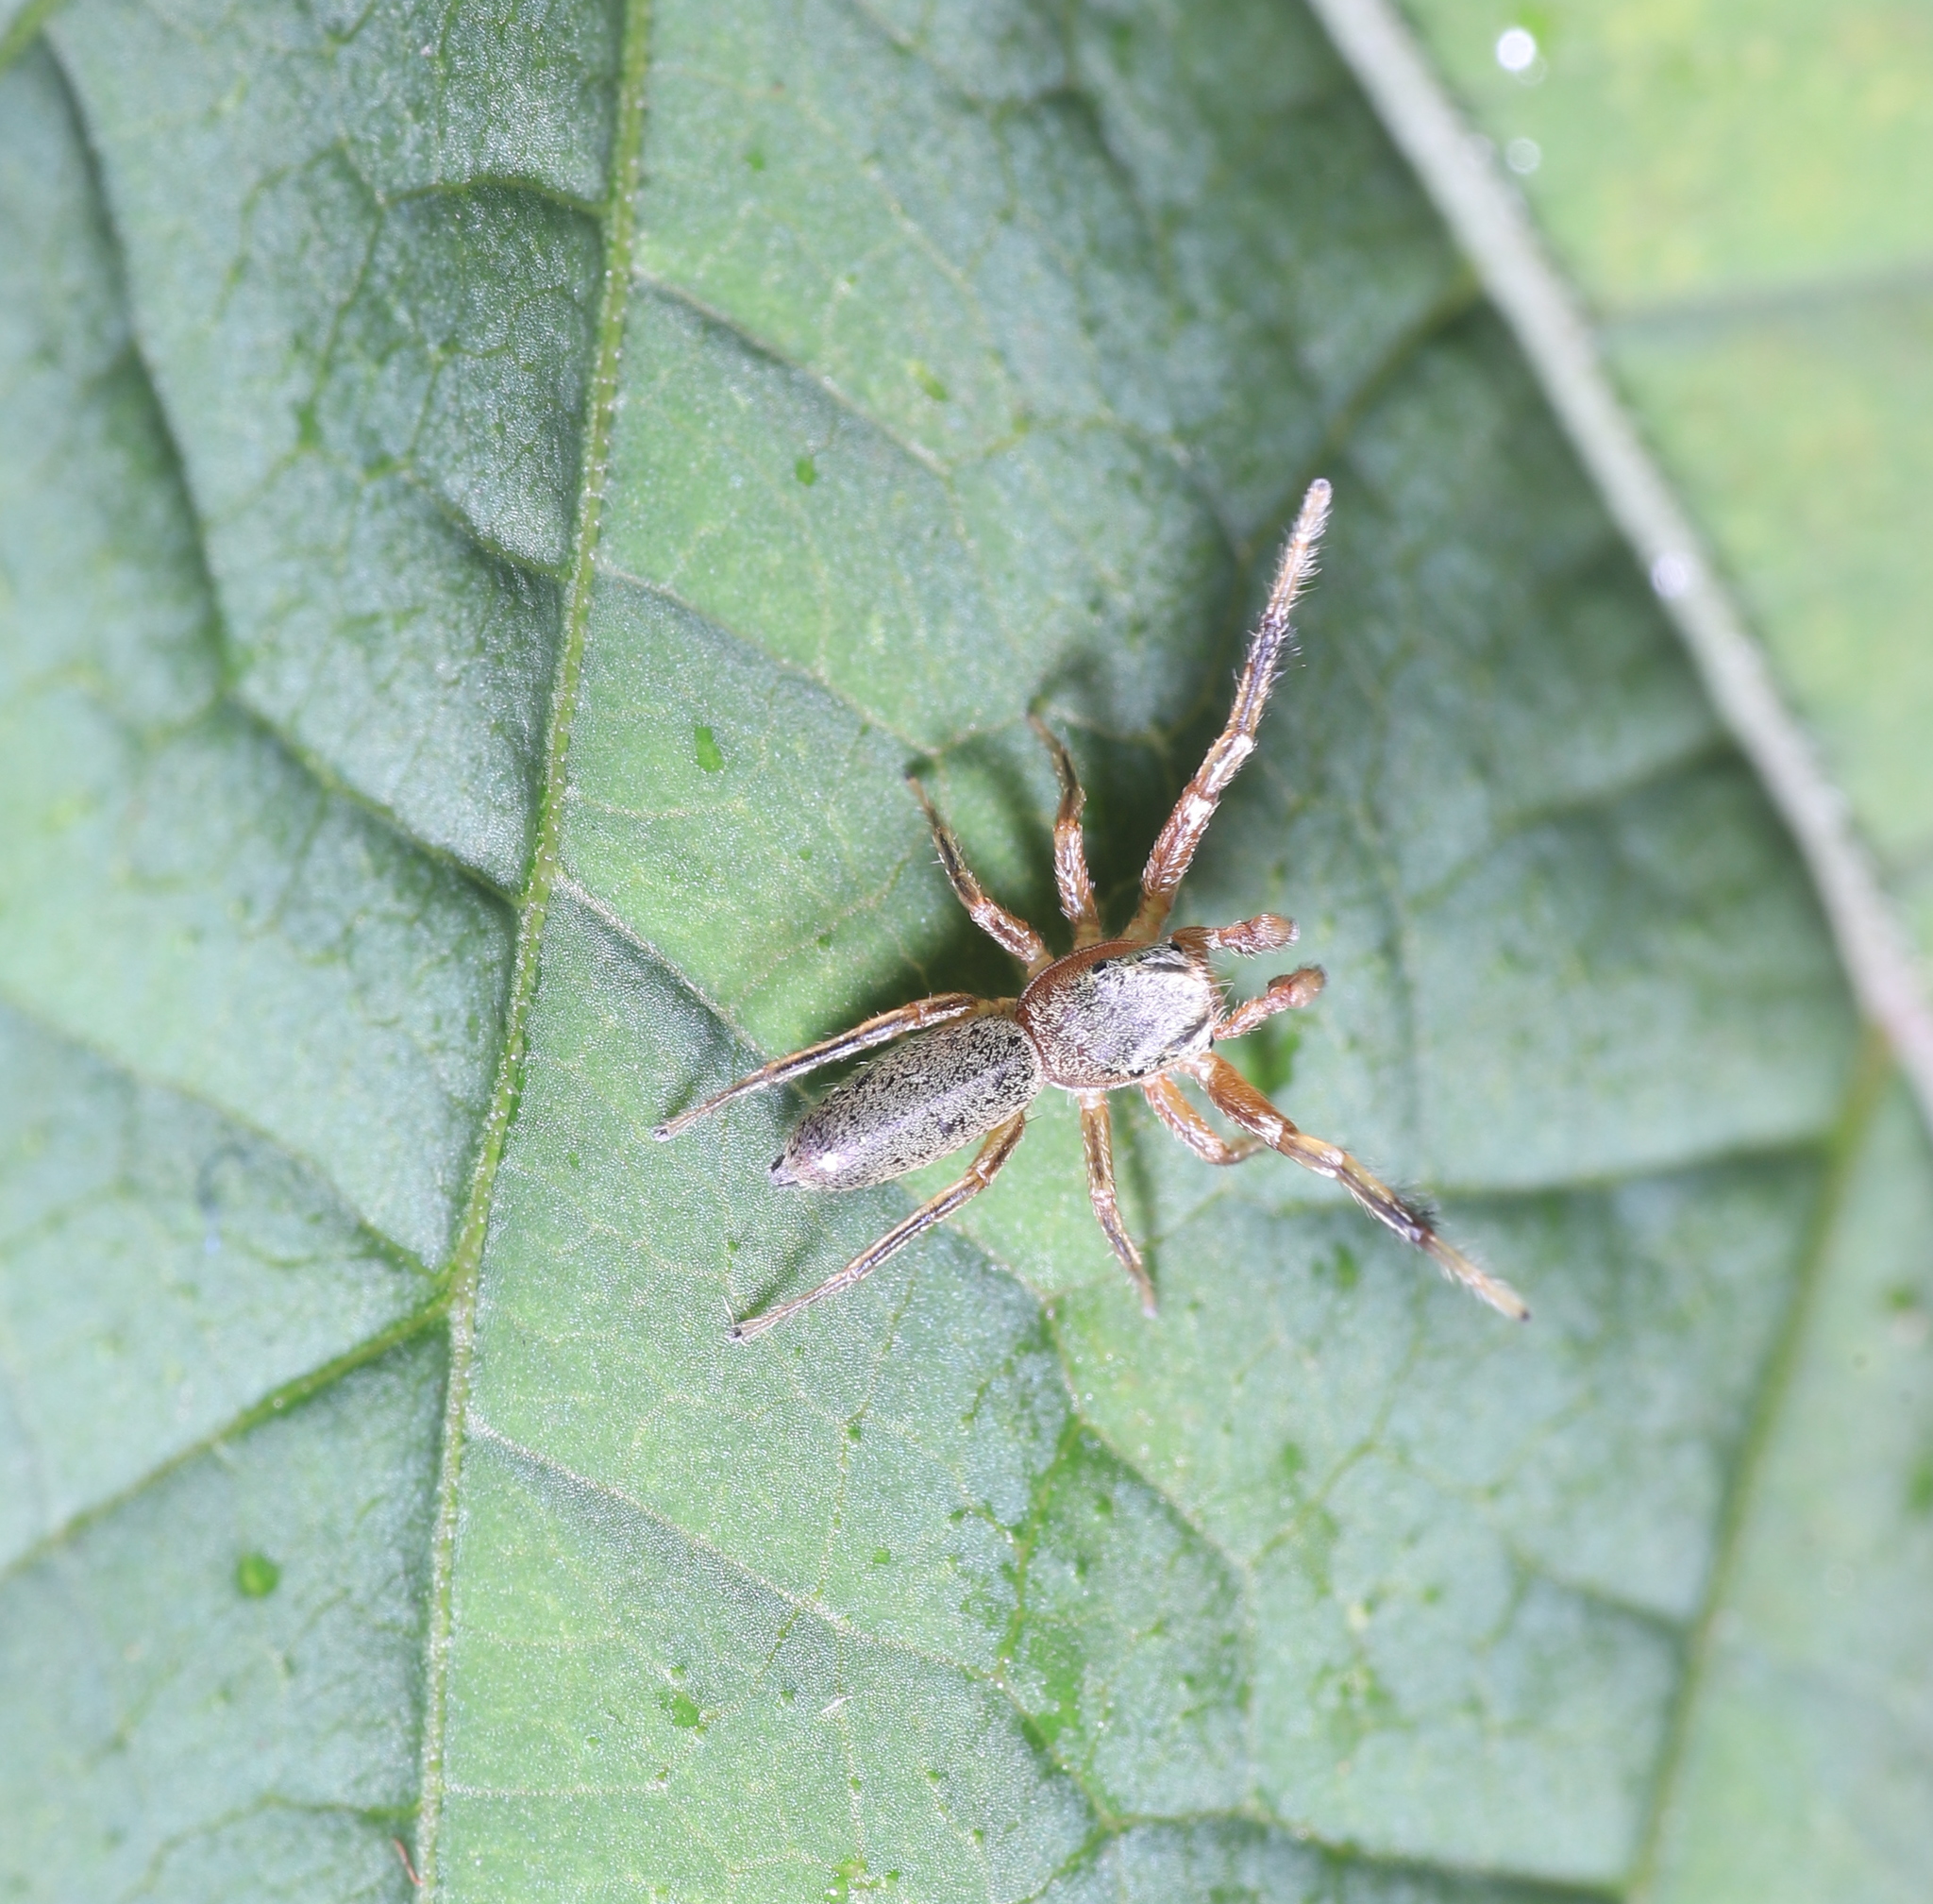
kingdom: Animalia
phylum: Arthropoda
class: Arachnida
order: Araneae
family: Salticidae
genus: Tutelina
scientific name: Tutelina elegans
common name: Thin-spined jumping spider
